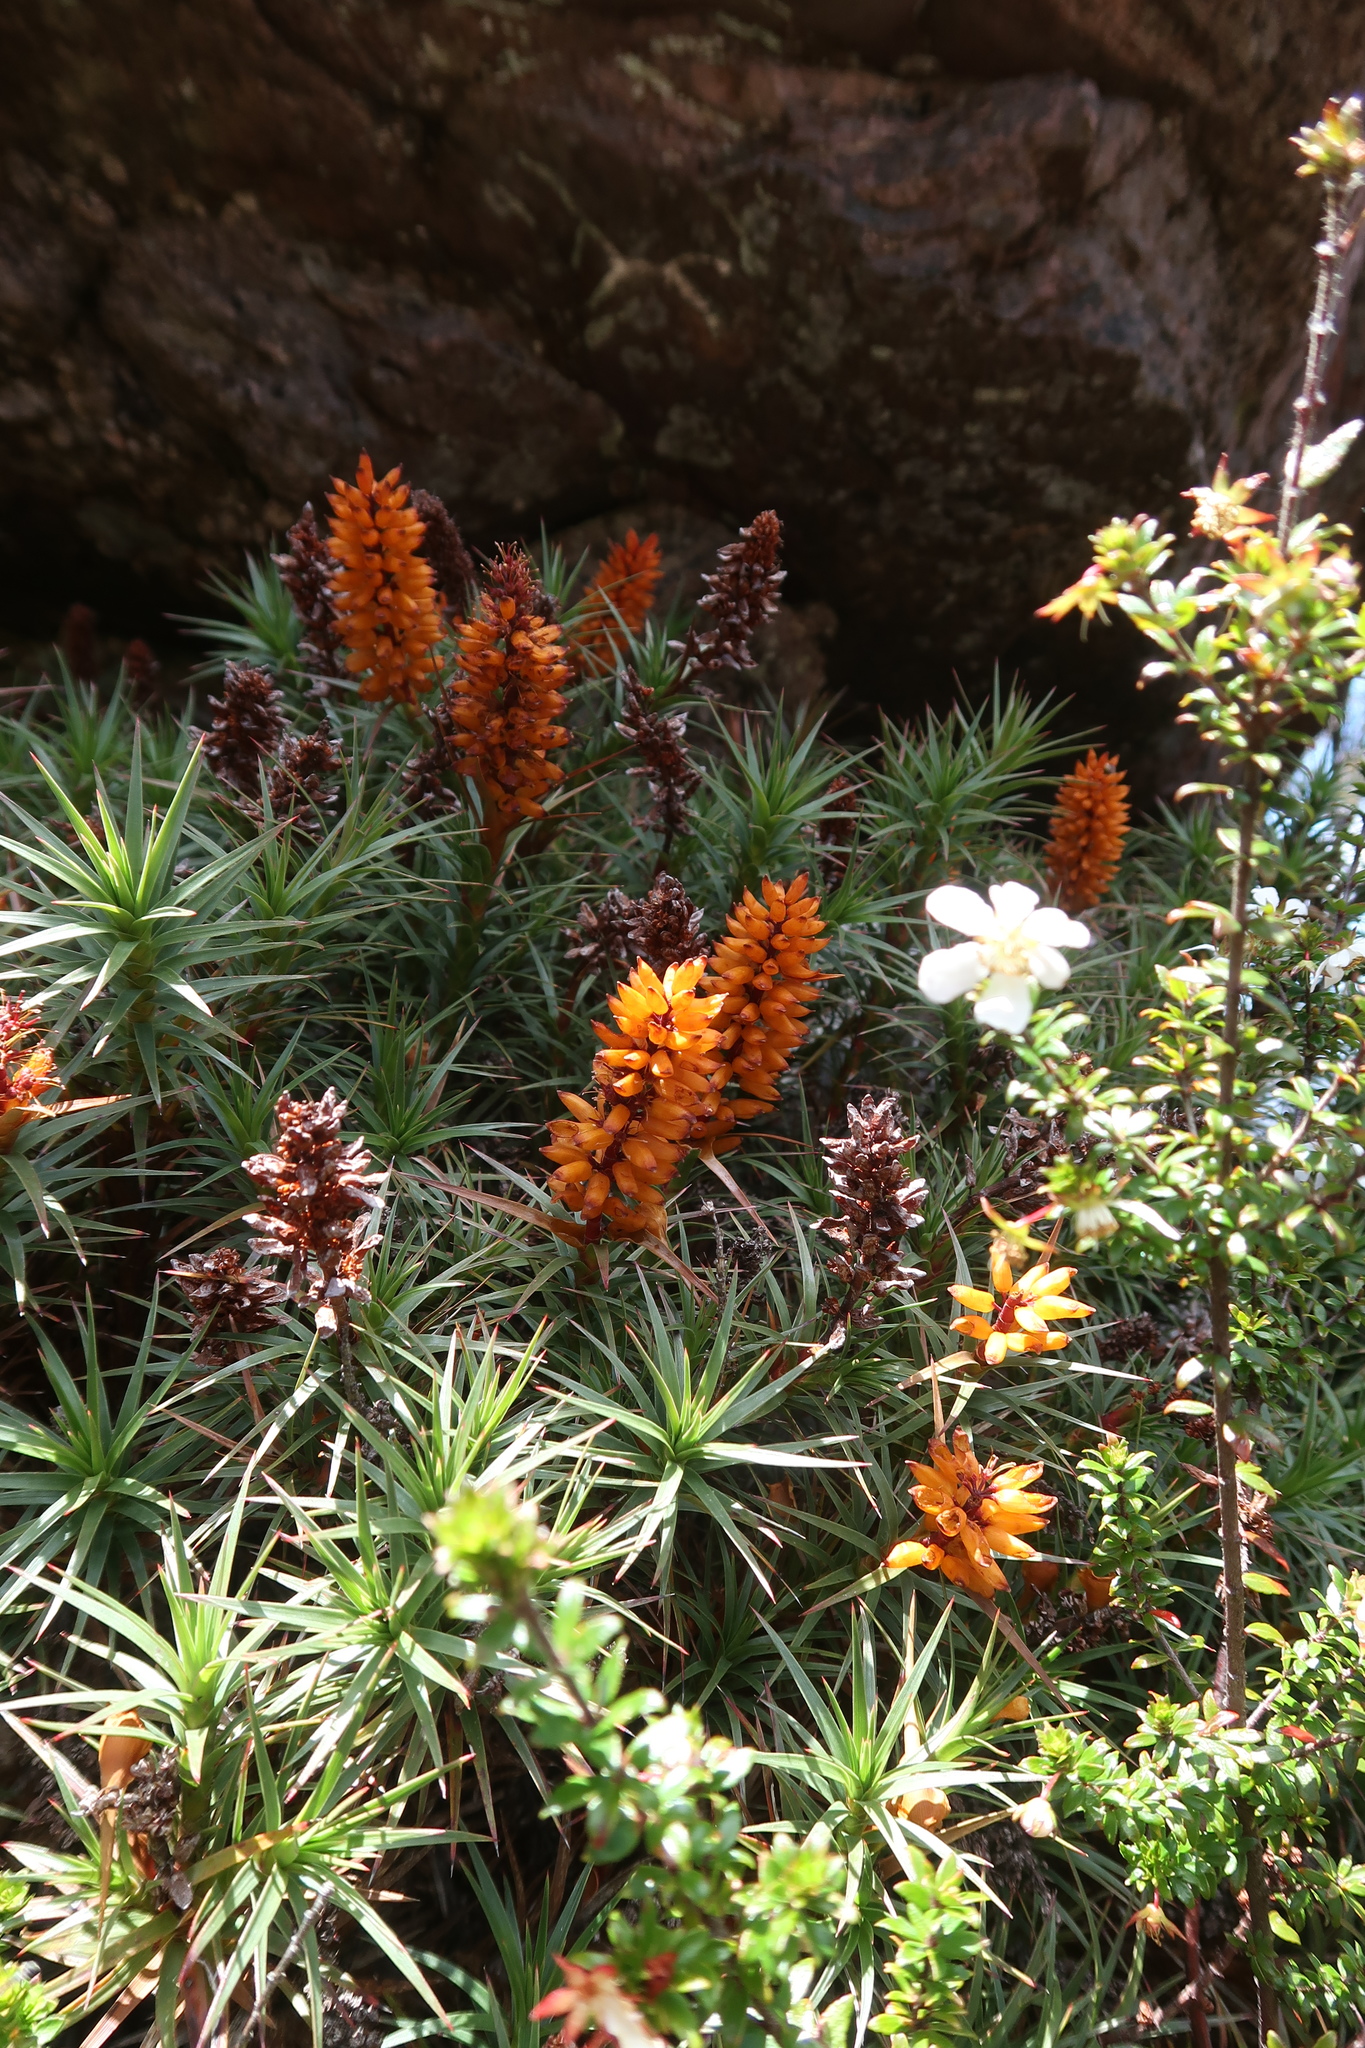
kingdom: Plantae
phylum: Tracheophyta
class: Magnoliopsida
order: Ericales
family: Ericaceae
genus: Dracophyllum
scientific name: Dracophyllum persistentifolium
